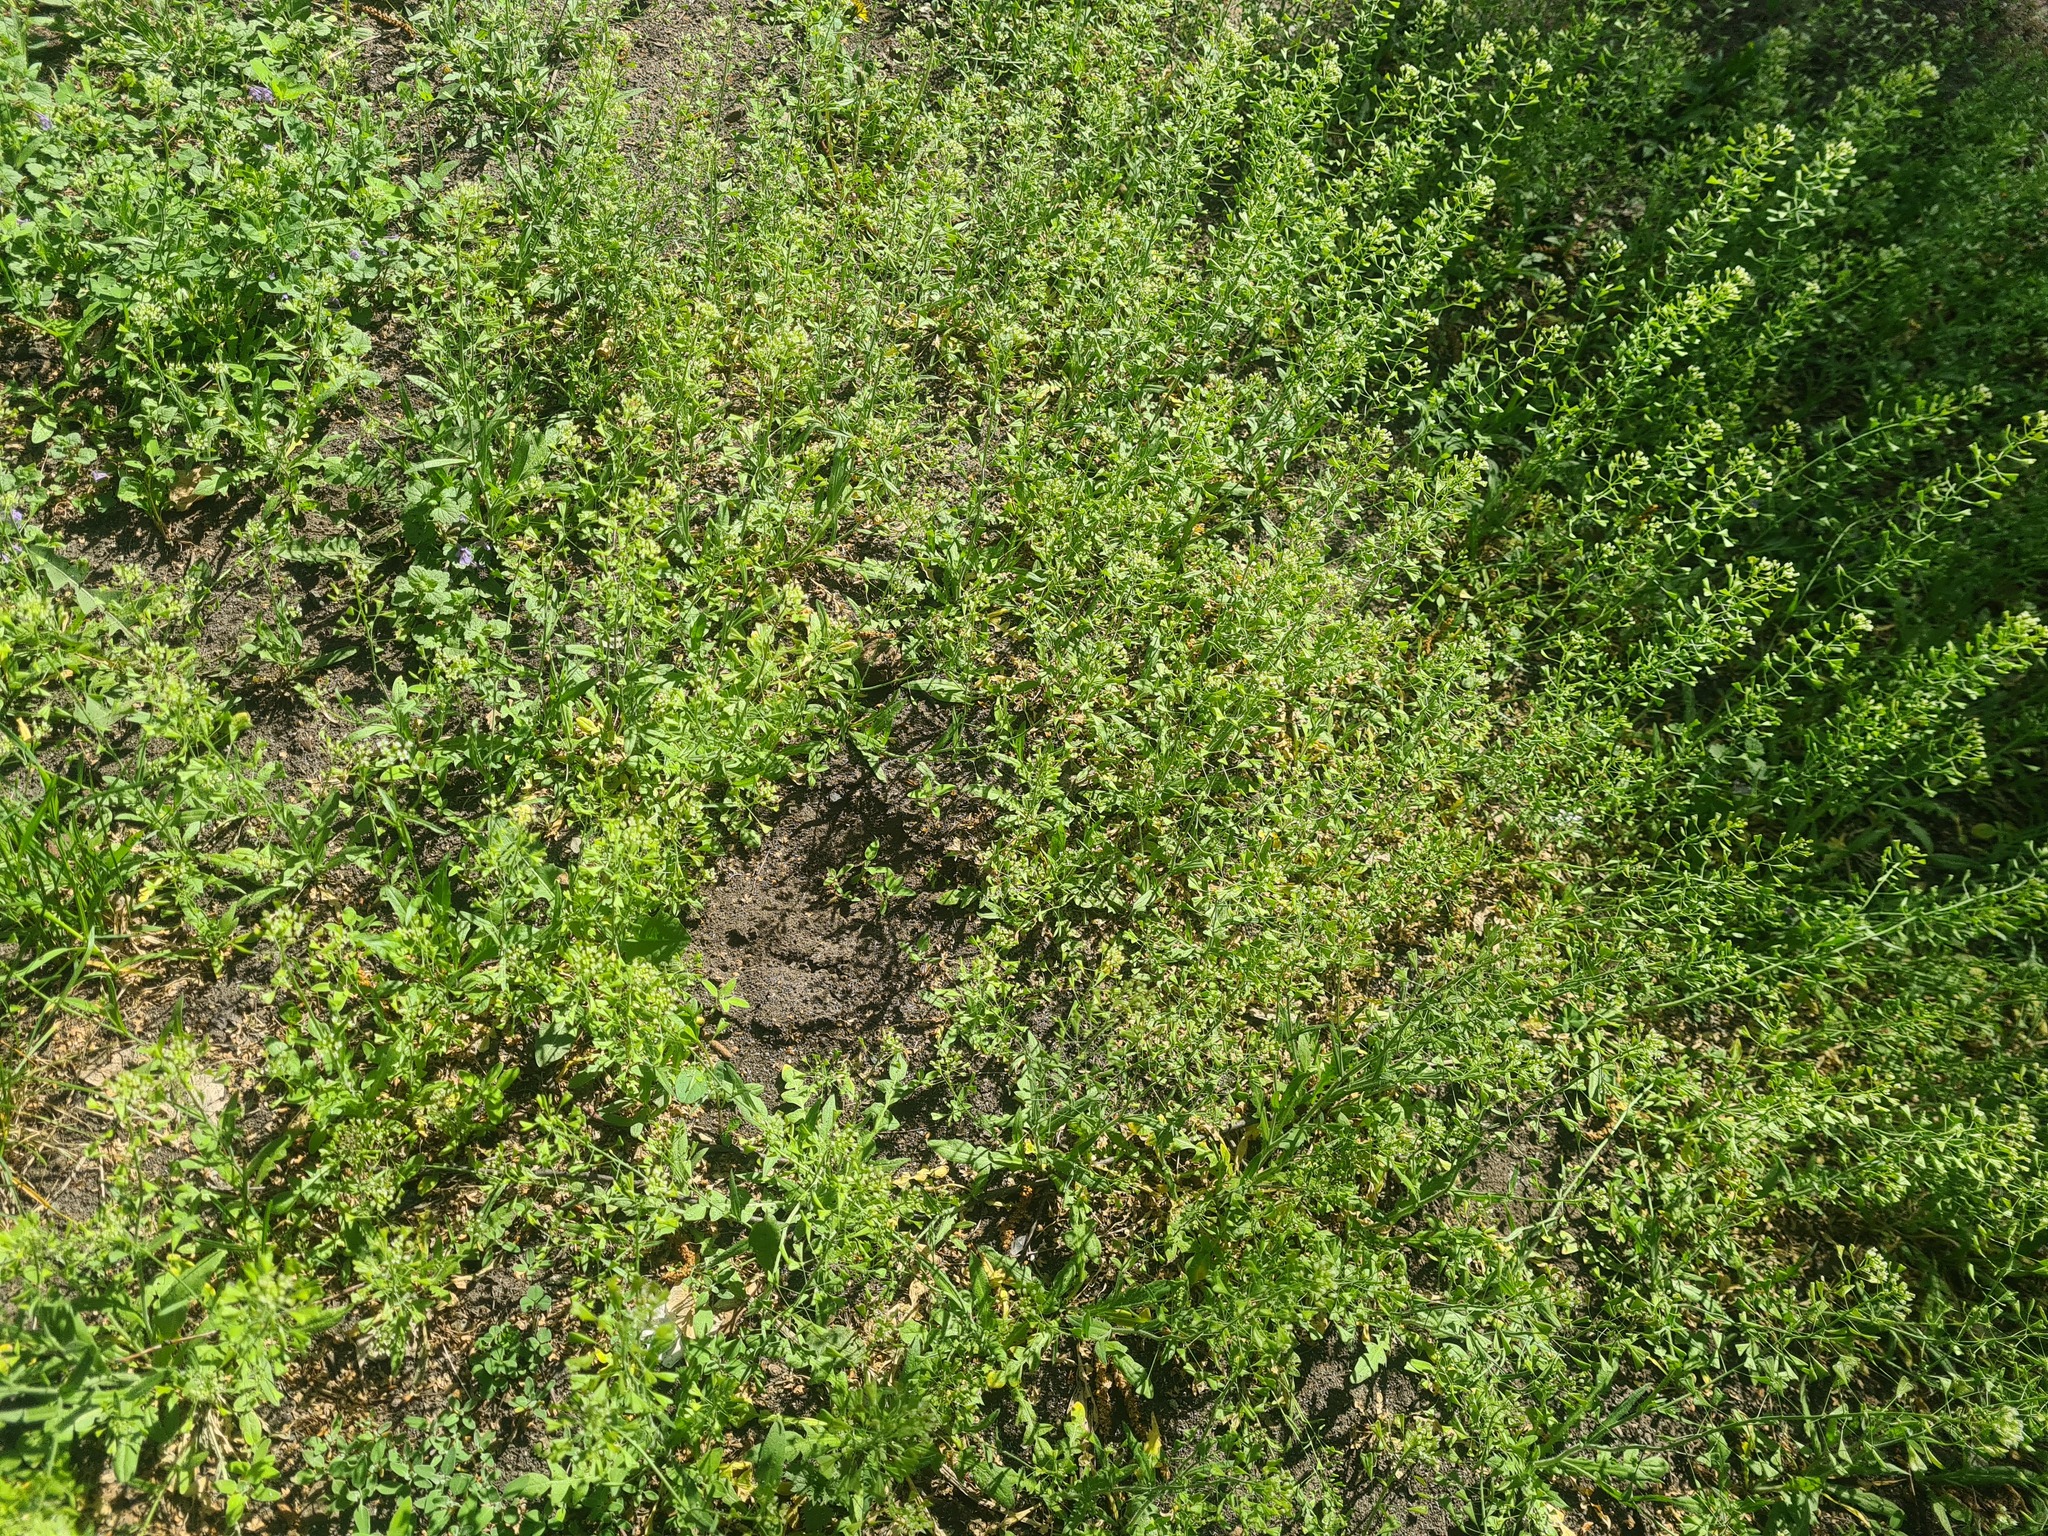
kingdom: Plantae
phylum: Tracheophyta
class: Magnoliopsida
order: Brassicales
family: Brassicaceae
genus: Capsella
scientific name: Capsella bursa-pastoris
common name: Shepherd's purse
